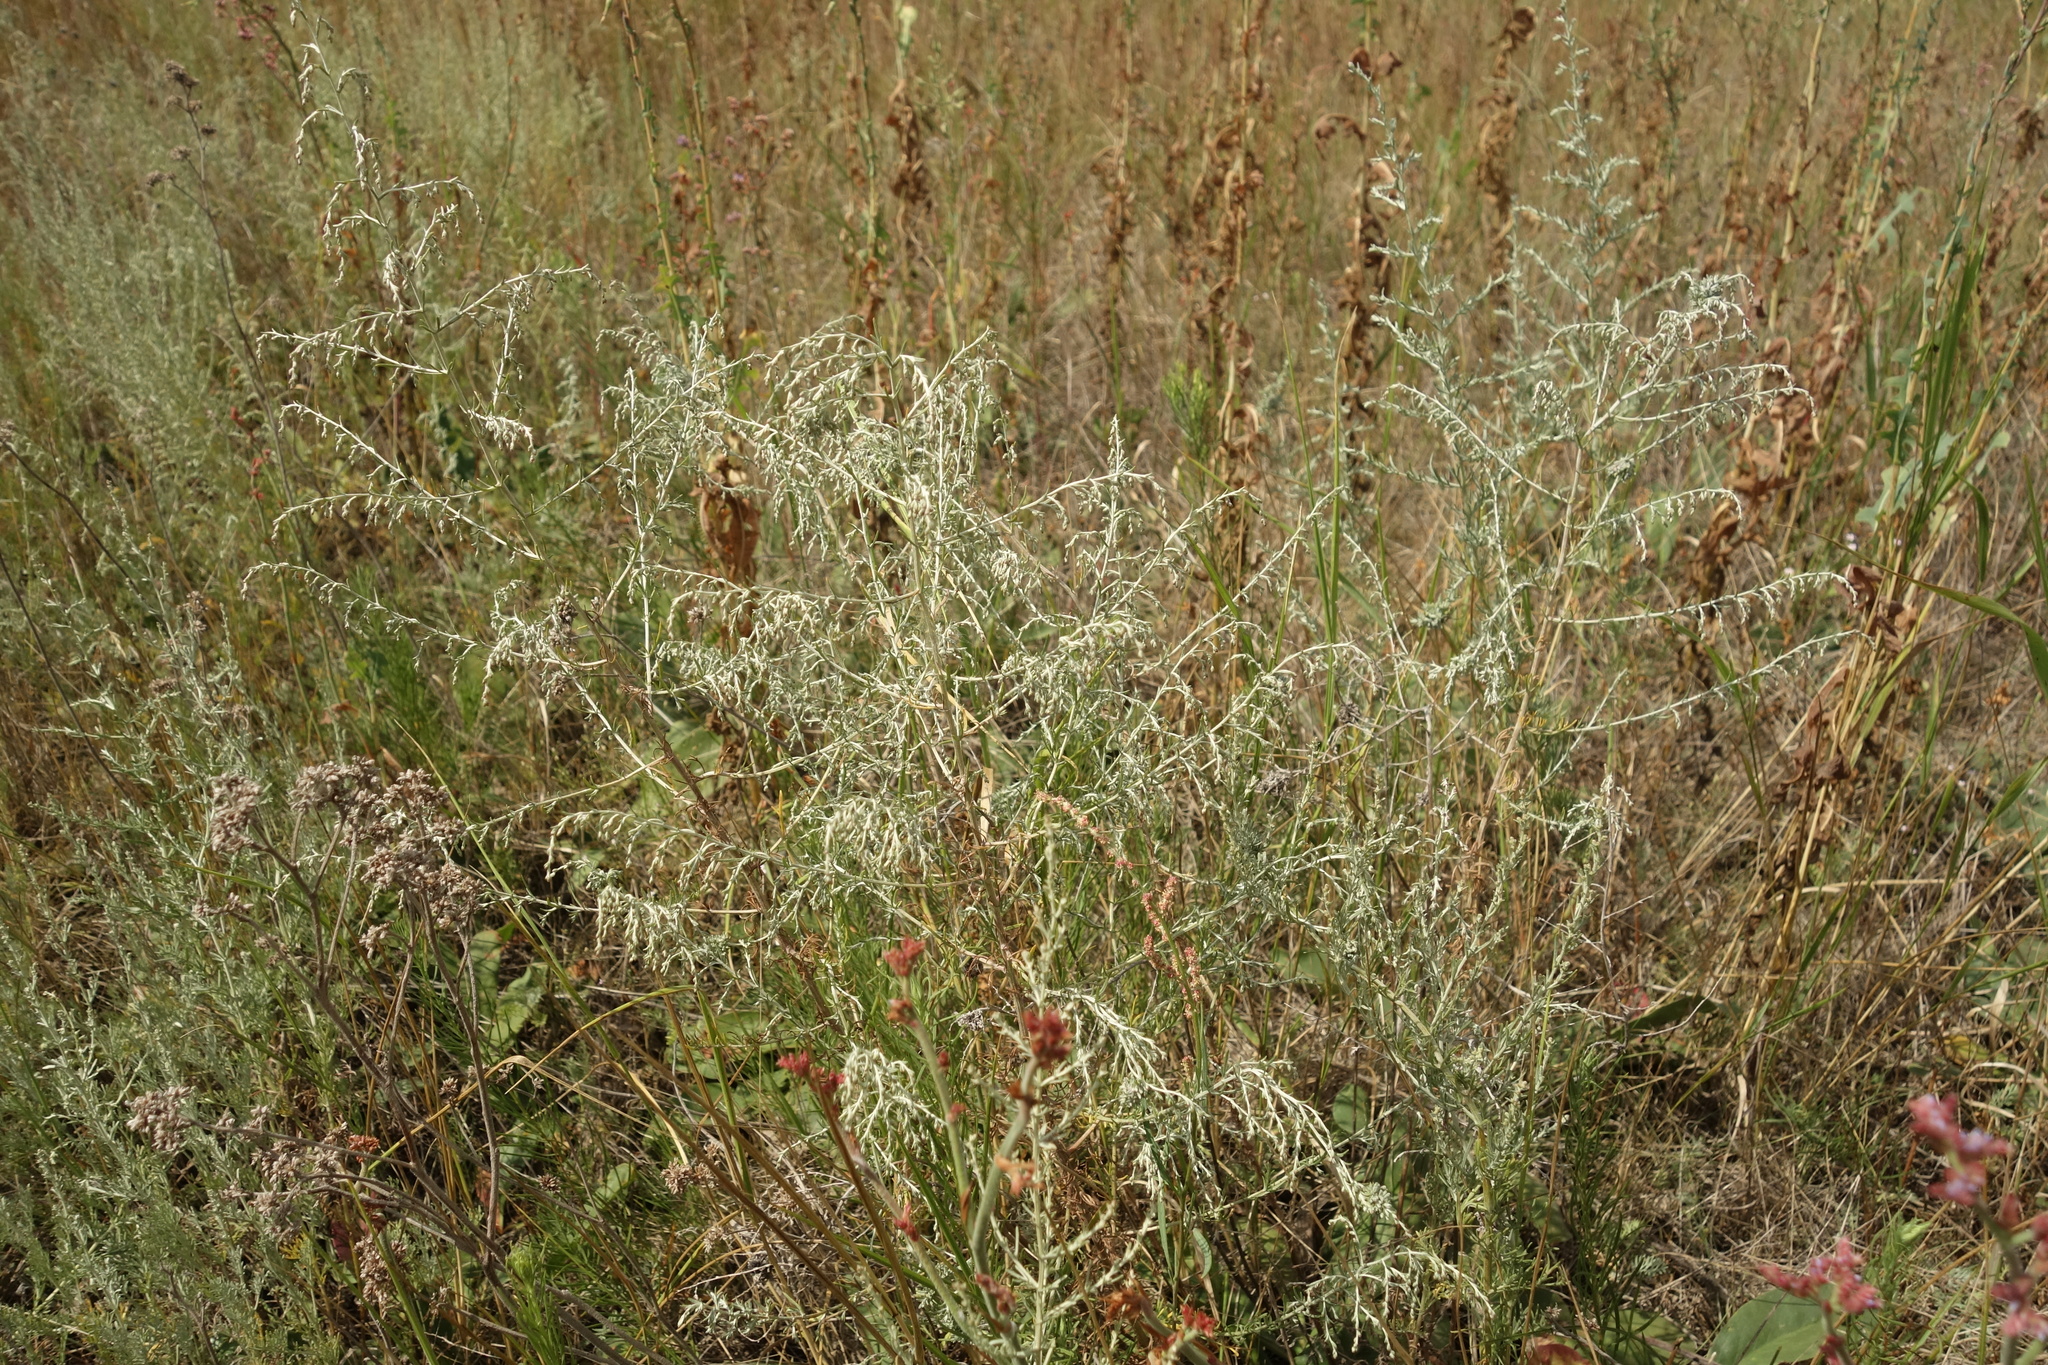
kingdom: Plantae
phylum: Tracheophyta
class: Magnoliopsida
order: Asterales
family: Asteraceae
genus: Artemisia
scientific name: Artemisia santonicum
